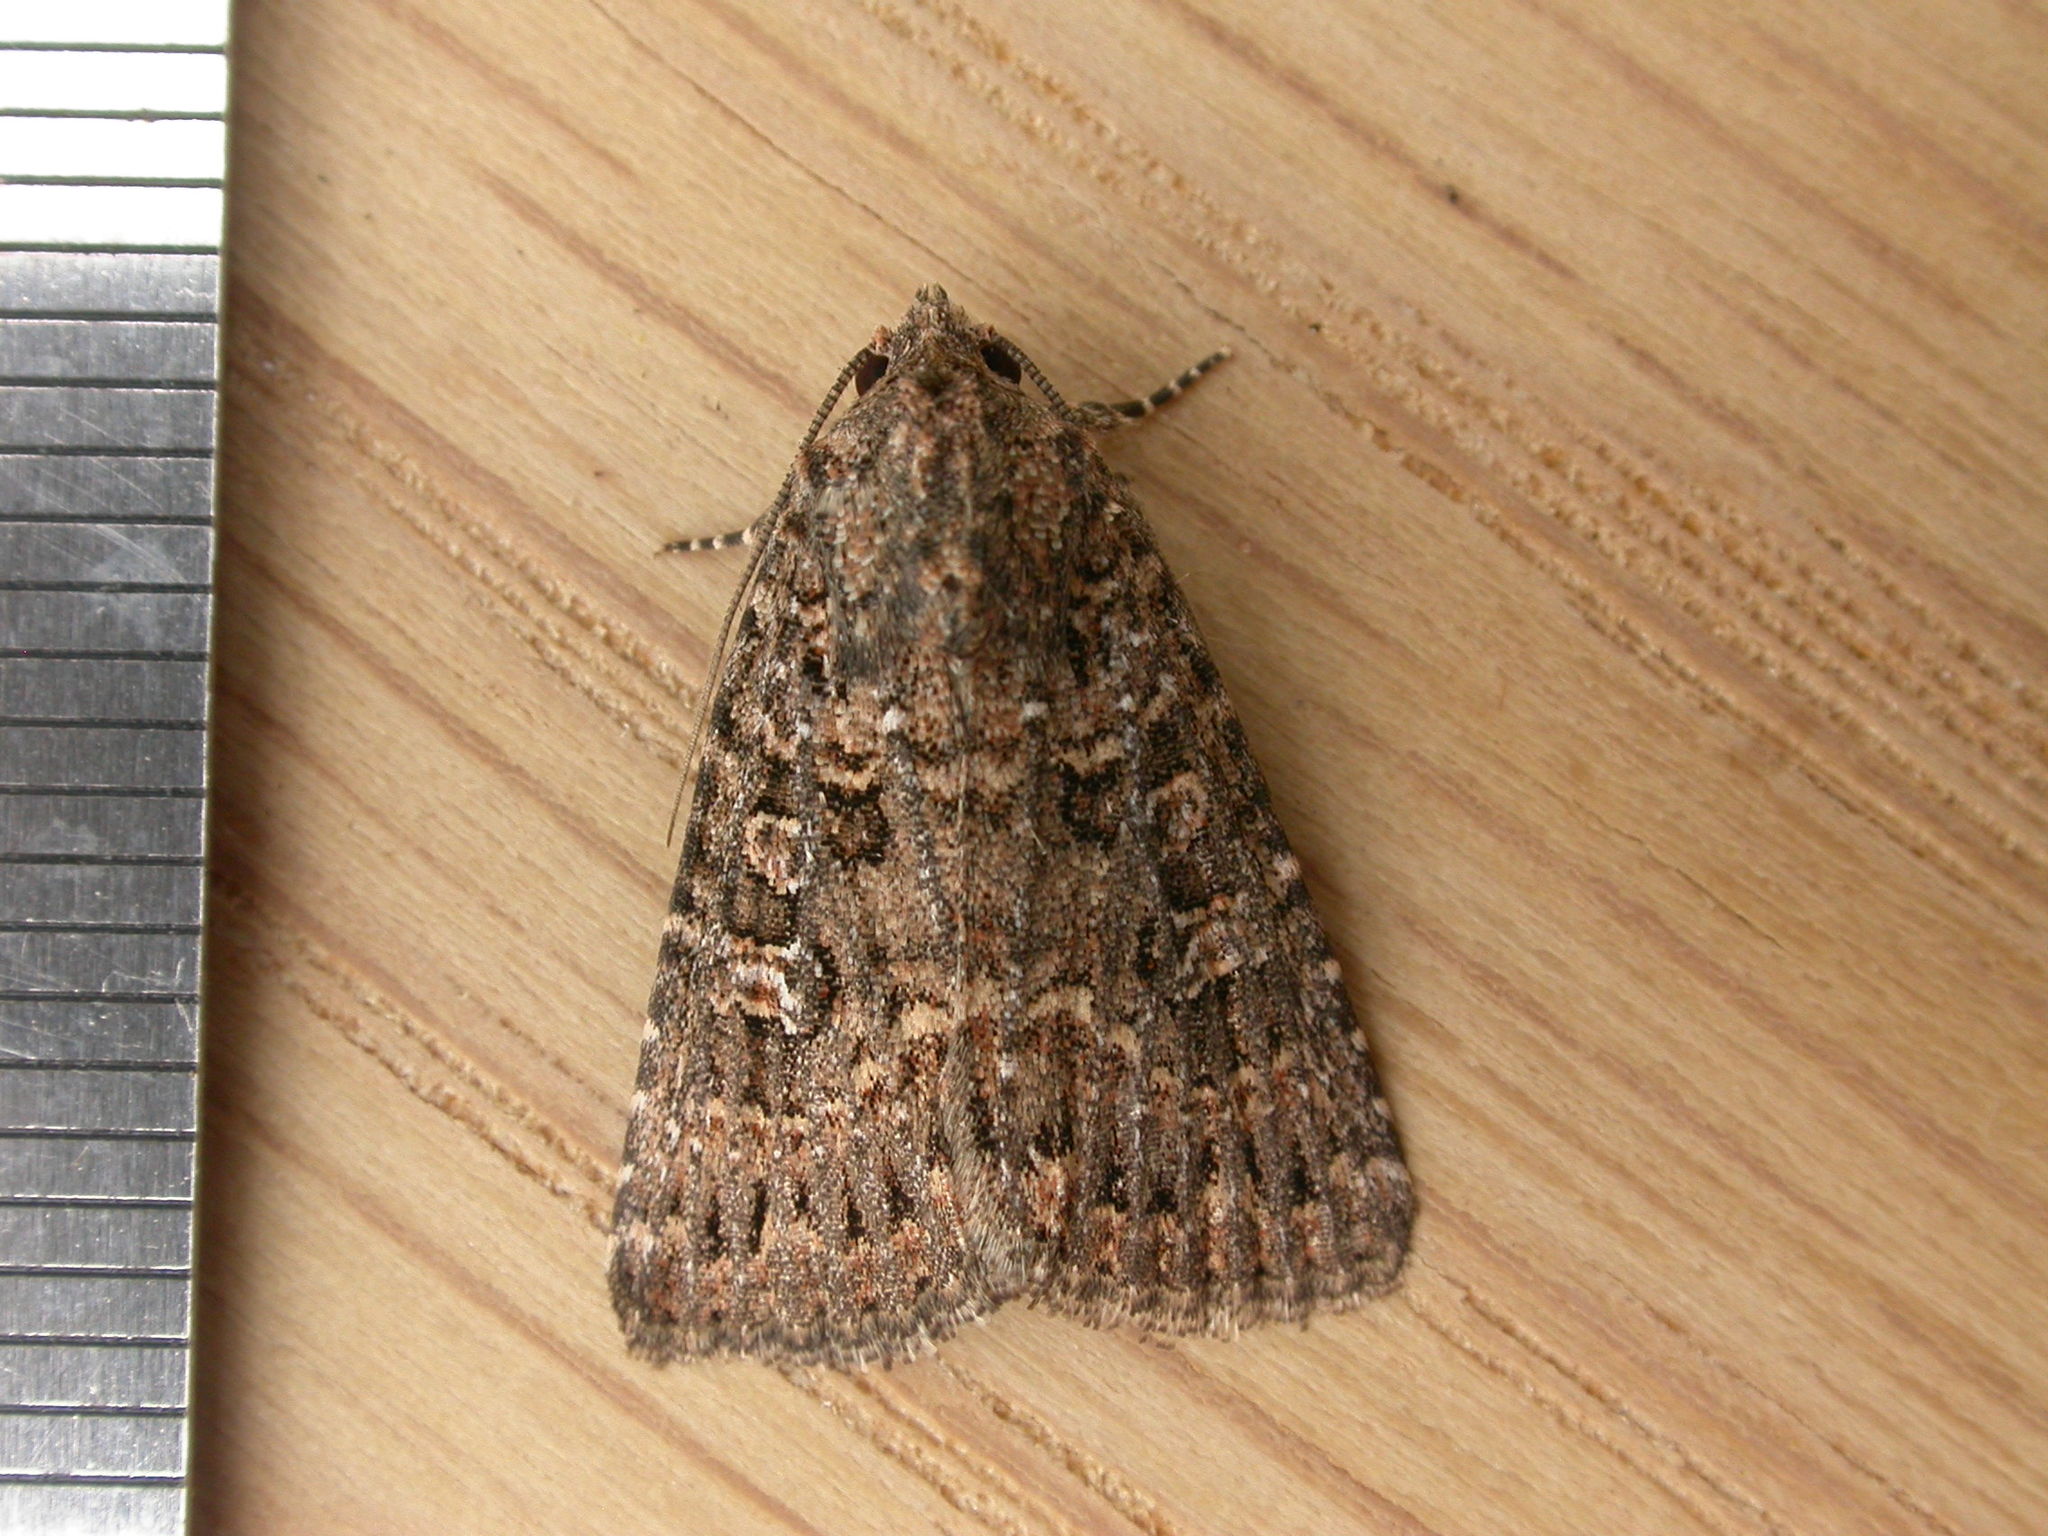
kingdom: Animalia
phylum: Arthropoda
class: Insecta
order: Lepidoptera
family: Noctuidae
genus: Hypoperigea
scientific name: Hypoperigea tonsa
